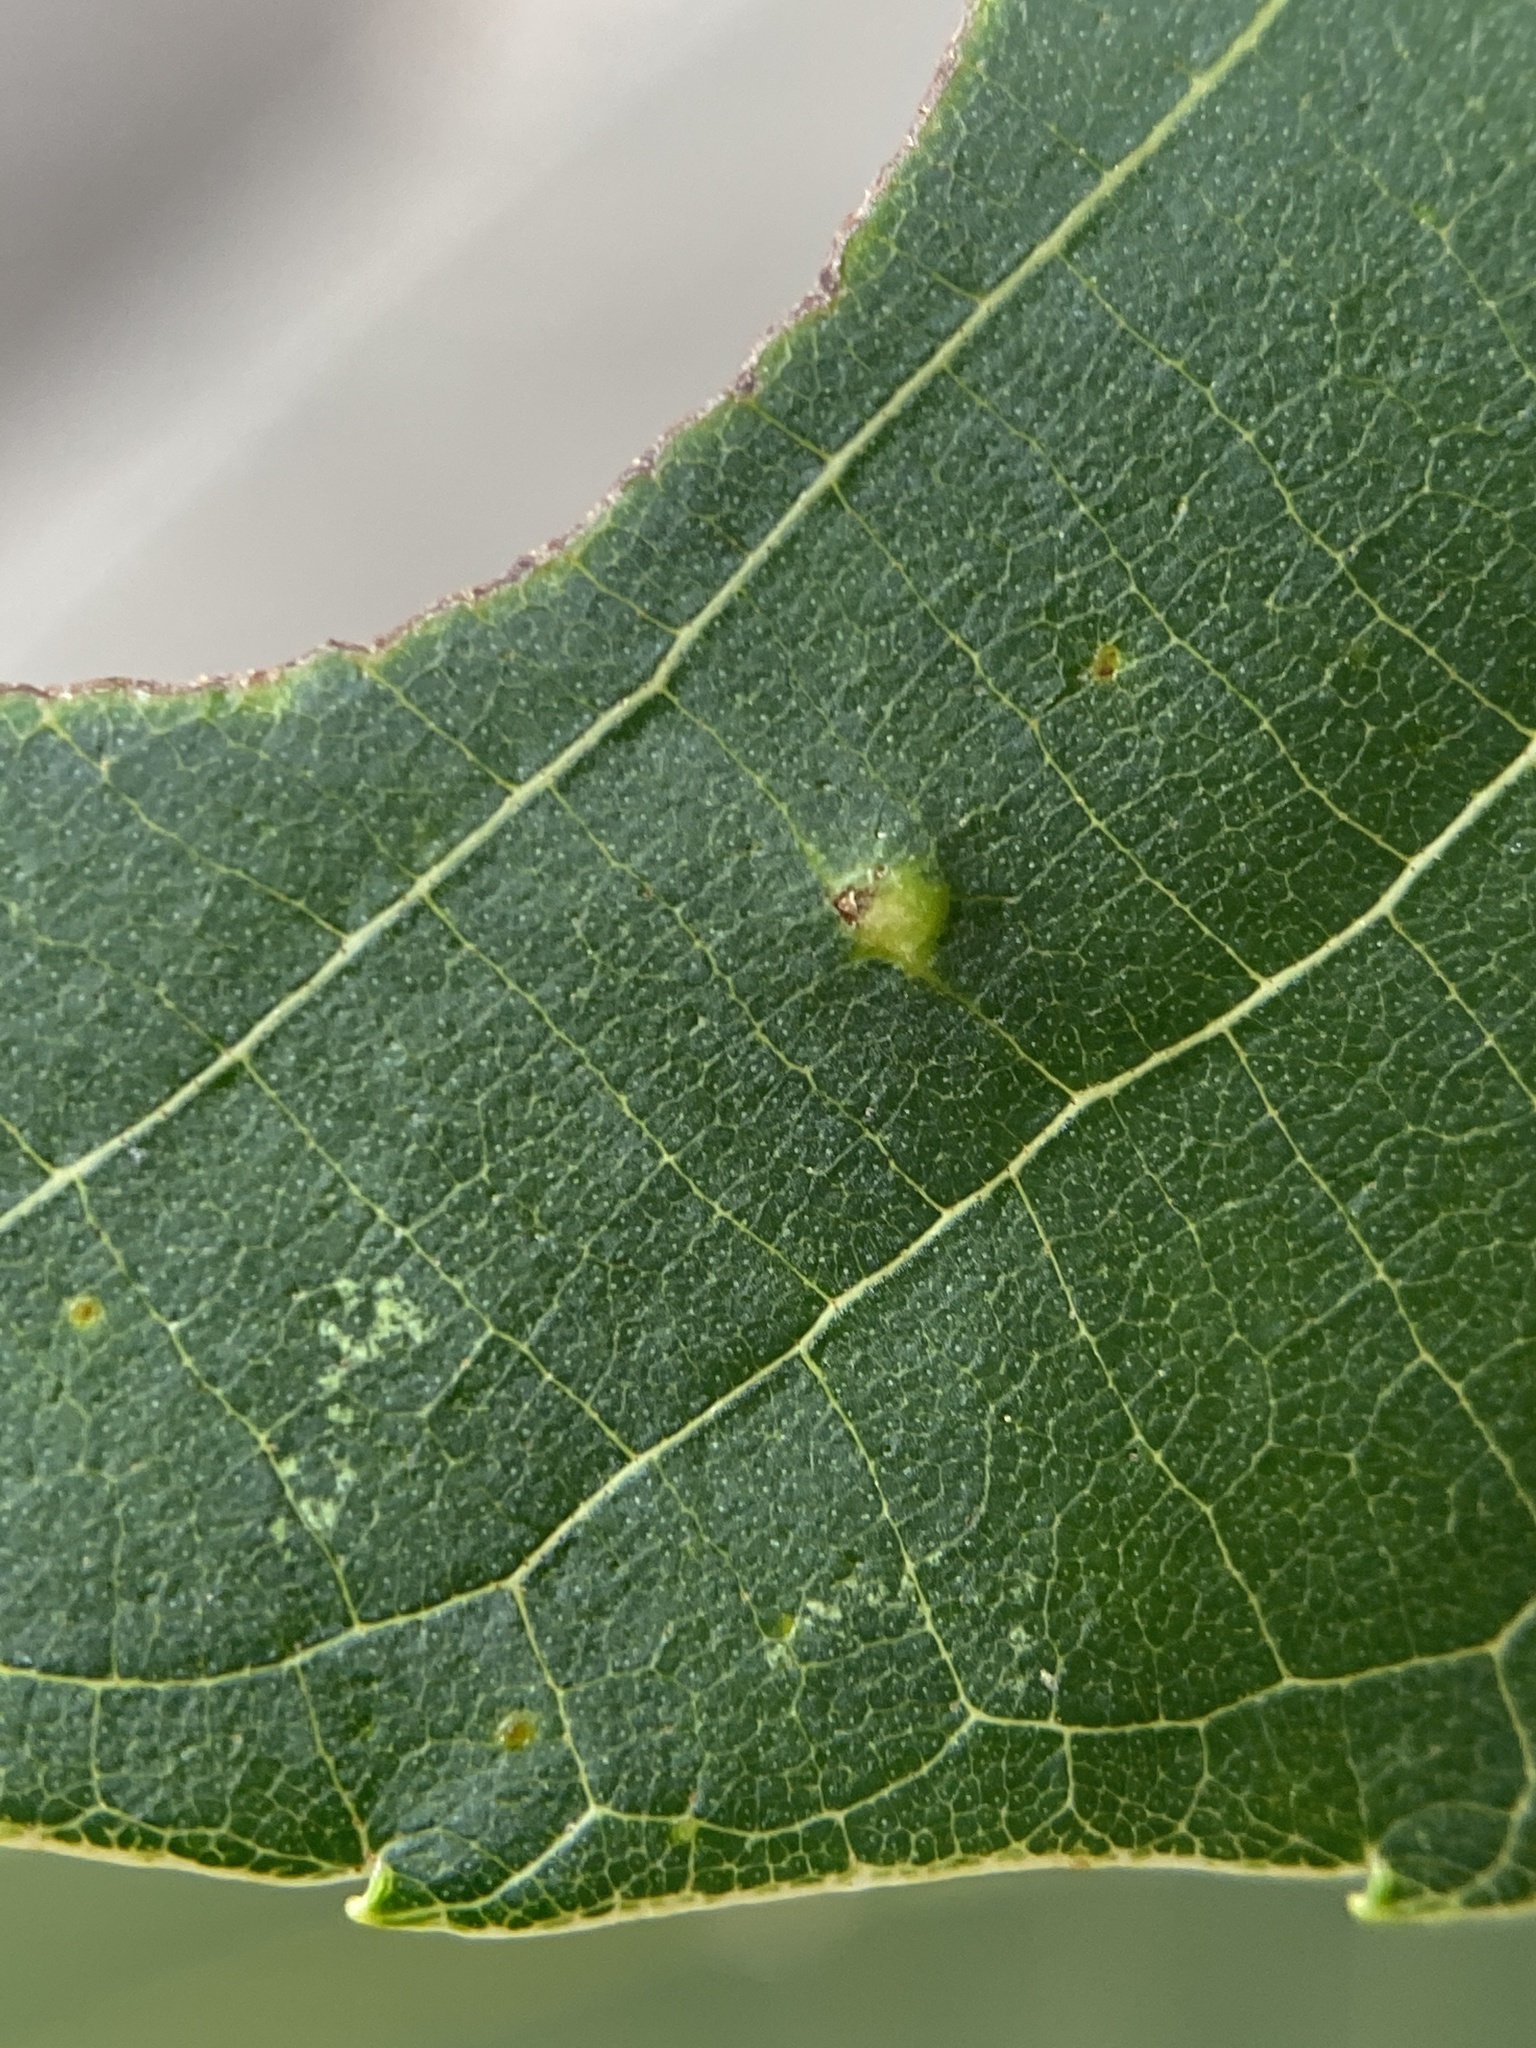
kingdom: Animalia
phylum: Arthropoda
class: Insecta
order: Diptera
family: Cecidomyiidae
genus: Caryomyia
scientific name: Caryomyia thompsoni
